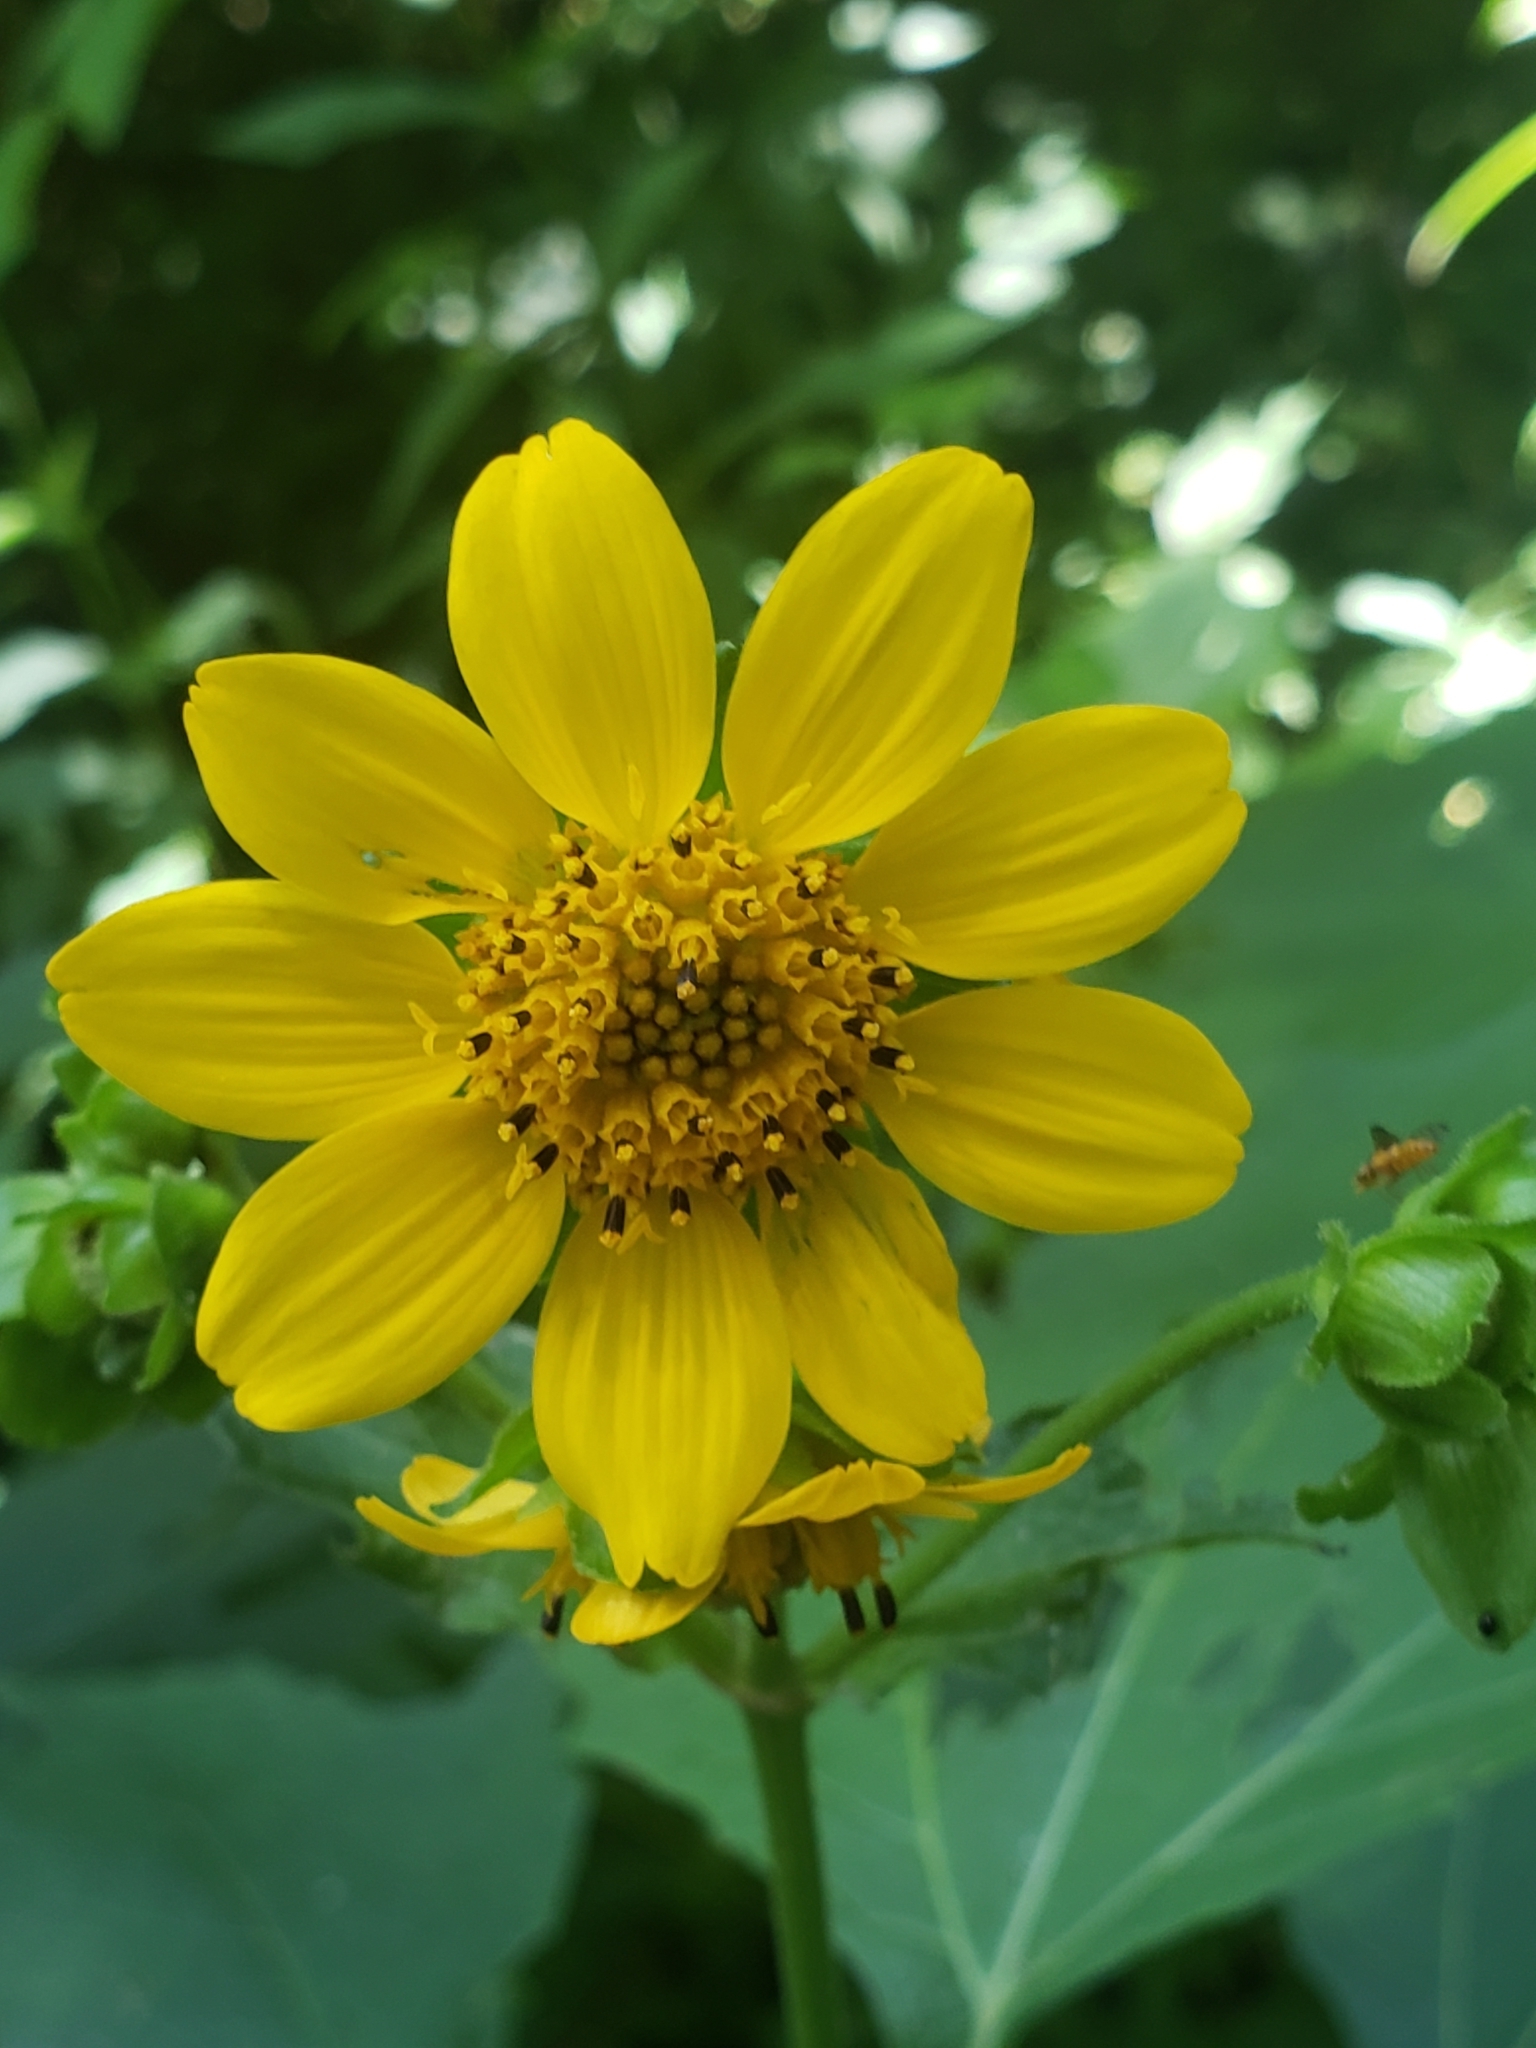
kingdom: Plantae
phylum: Tracheophyta
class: Magnoliopsida
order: Asterales
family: Asteraceae
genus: Smallanthus
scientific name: Smallanthus uvedalia
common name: Bear's-foot
